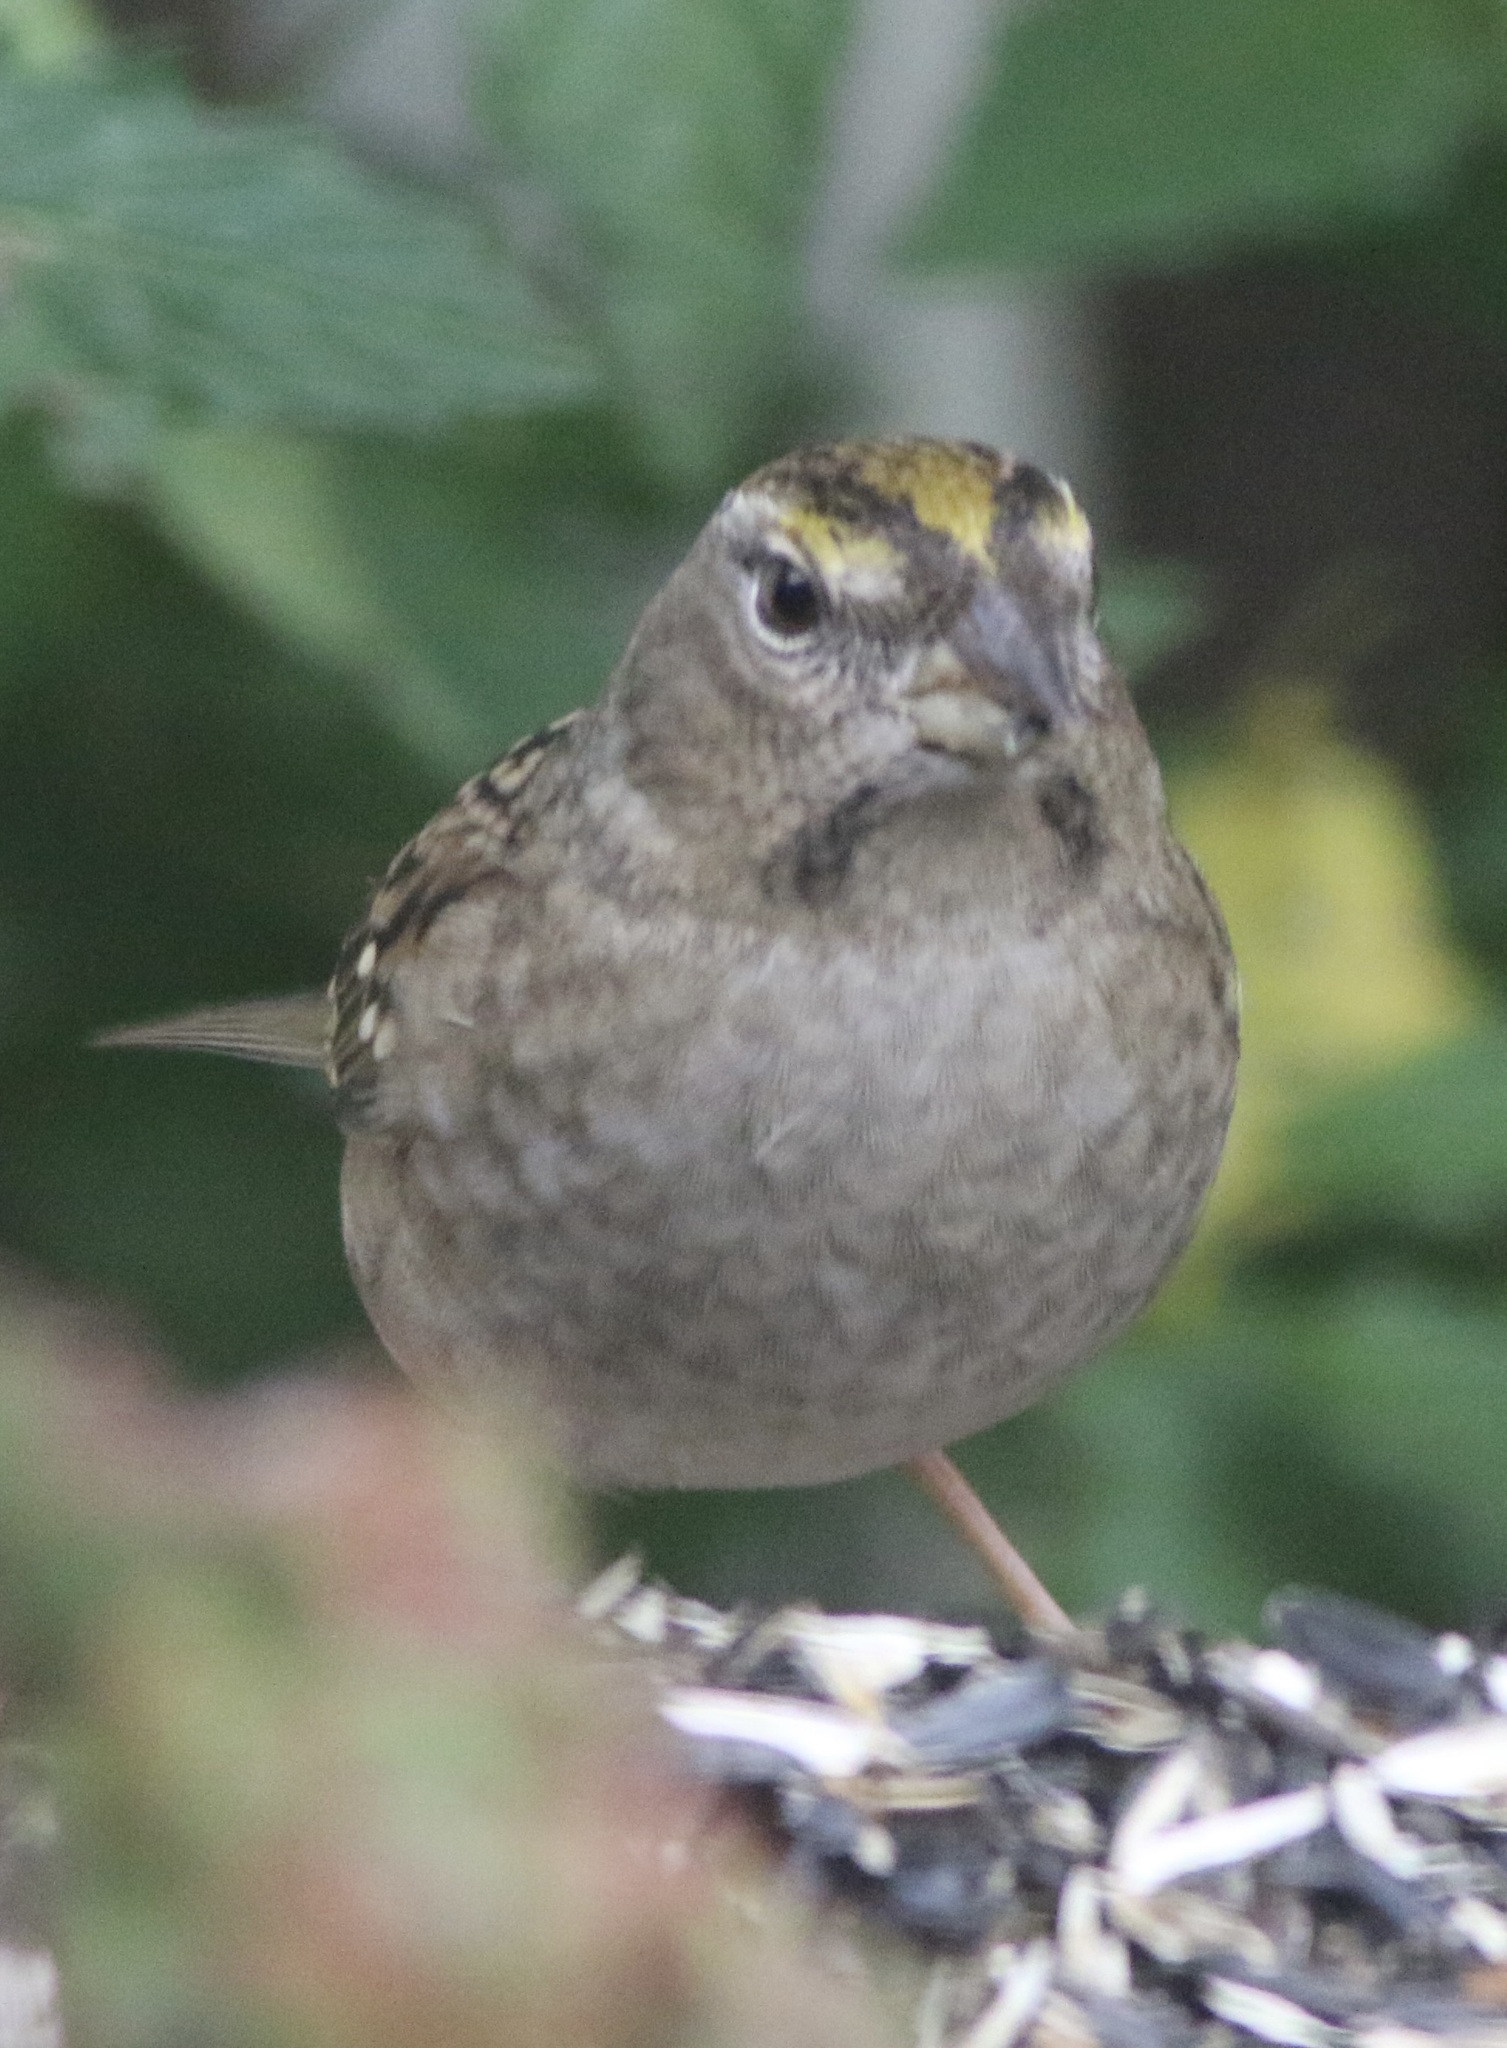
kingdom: Animalia
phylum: Chordata
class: Aves
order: Passeriformes
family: Passerellidae
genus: Zonotrichia
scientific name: Zonotrichia atricapilla
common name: Golden-crowned sparrow
